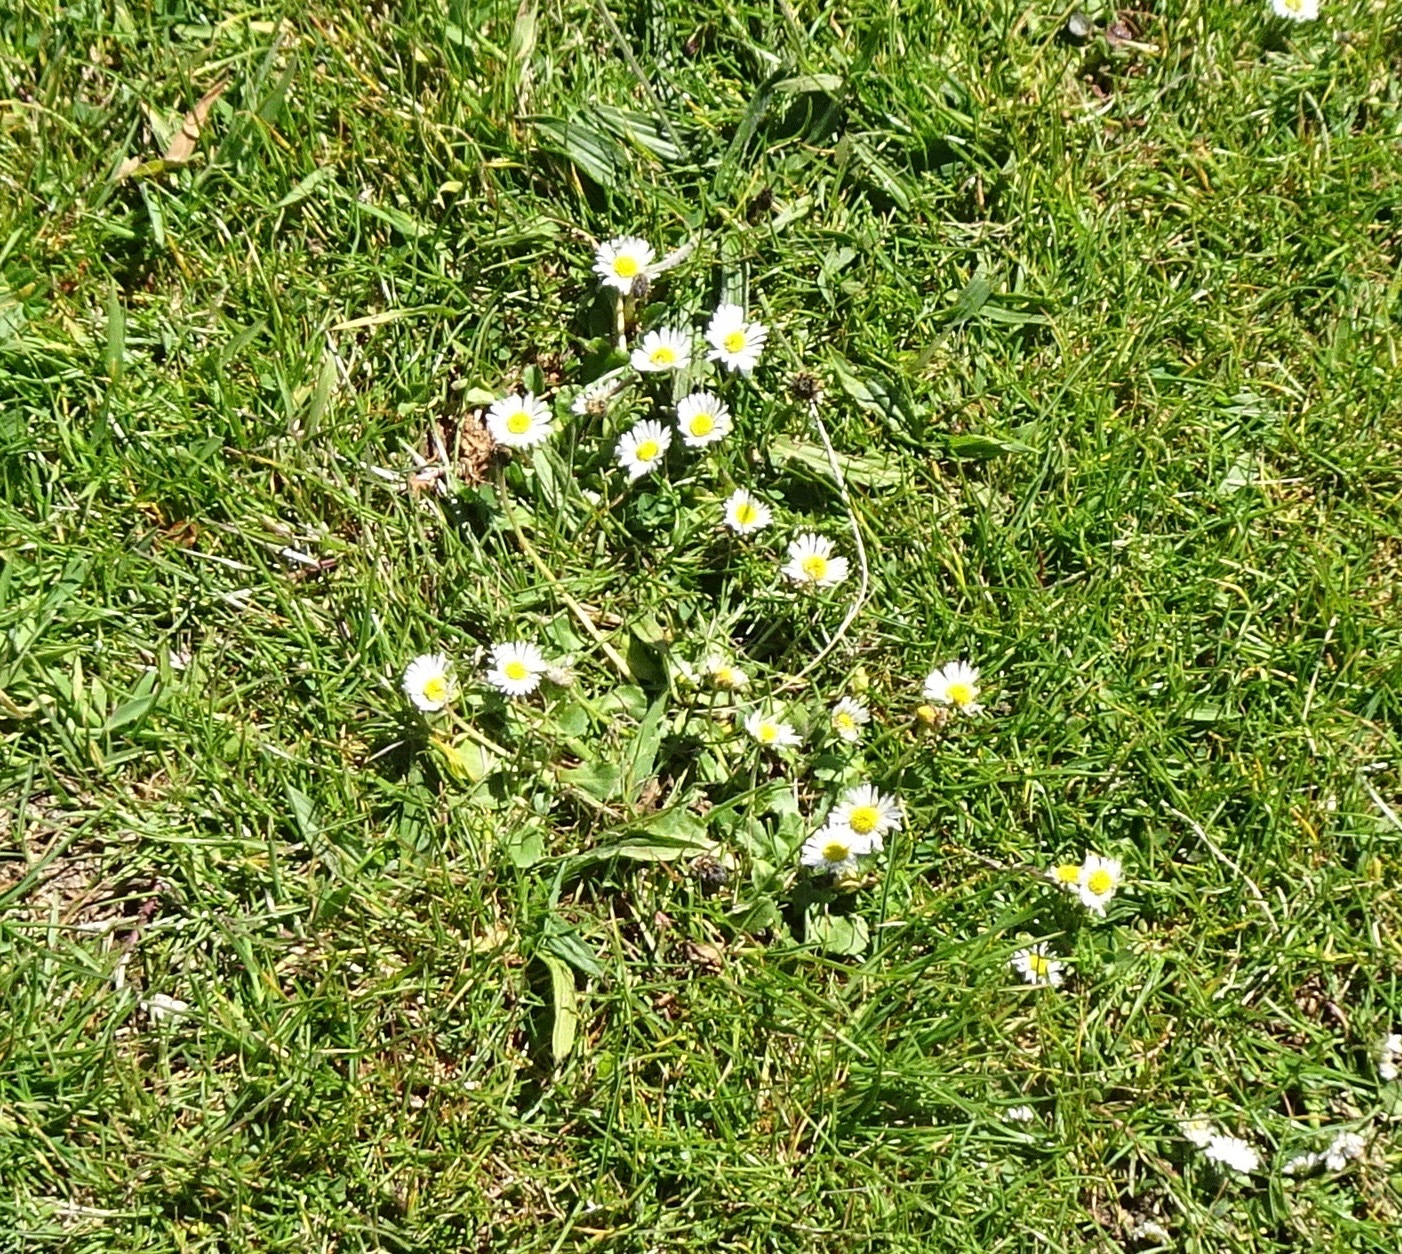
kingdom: Plantae
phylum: Tracheophyta
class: Magnoliopsida
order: Asterales
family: Asteraceae
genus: Bellis
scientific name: Bellis perennis
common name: Lawndaisy
